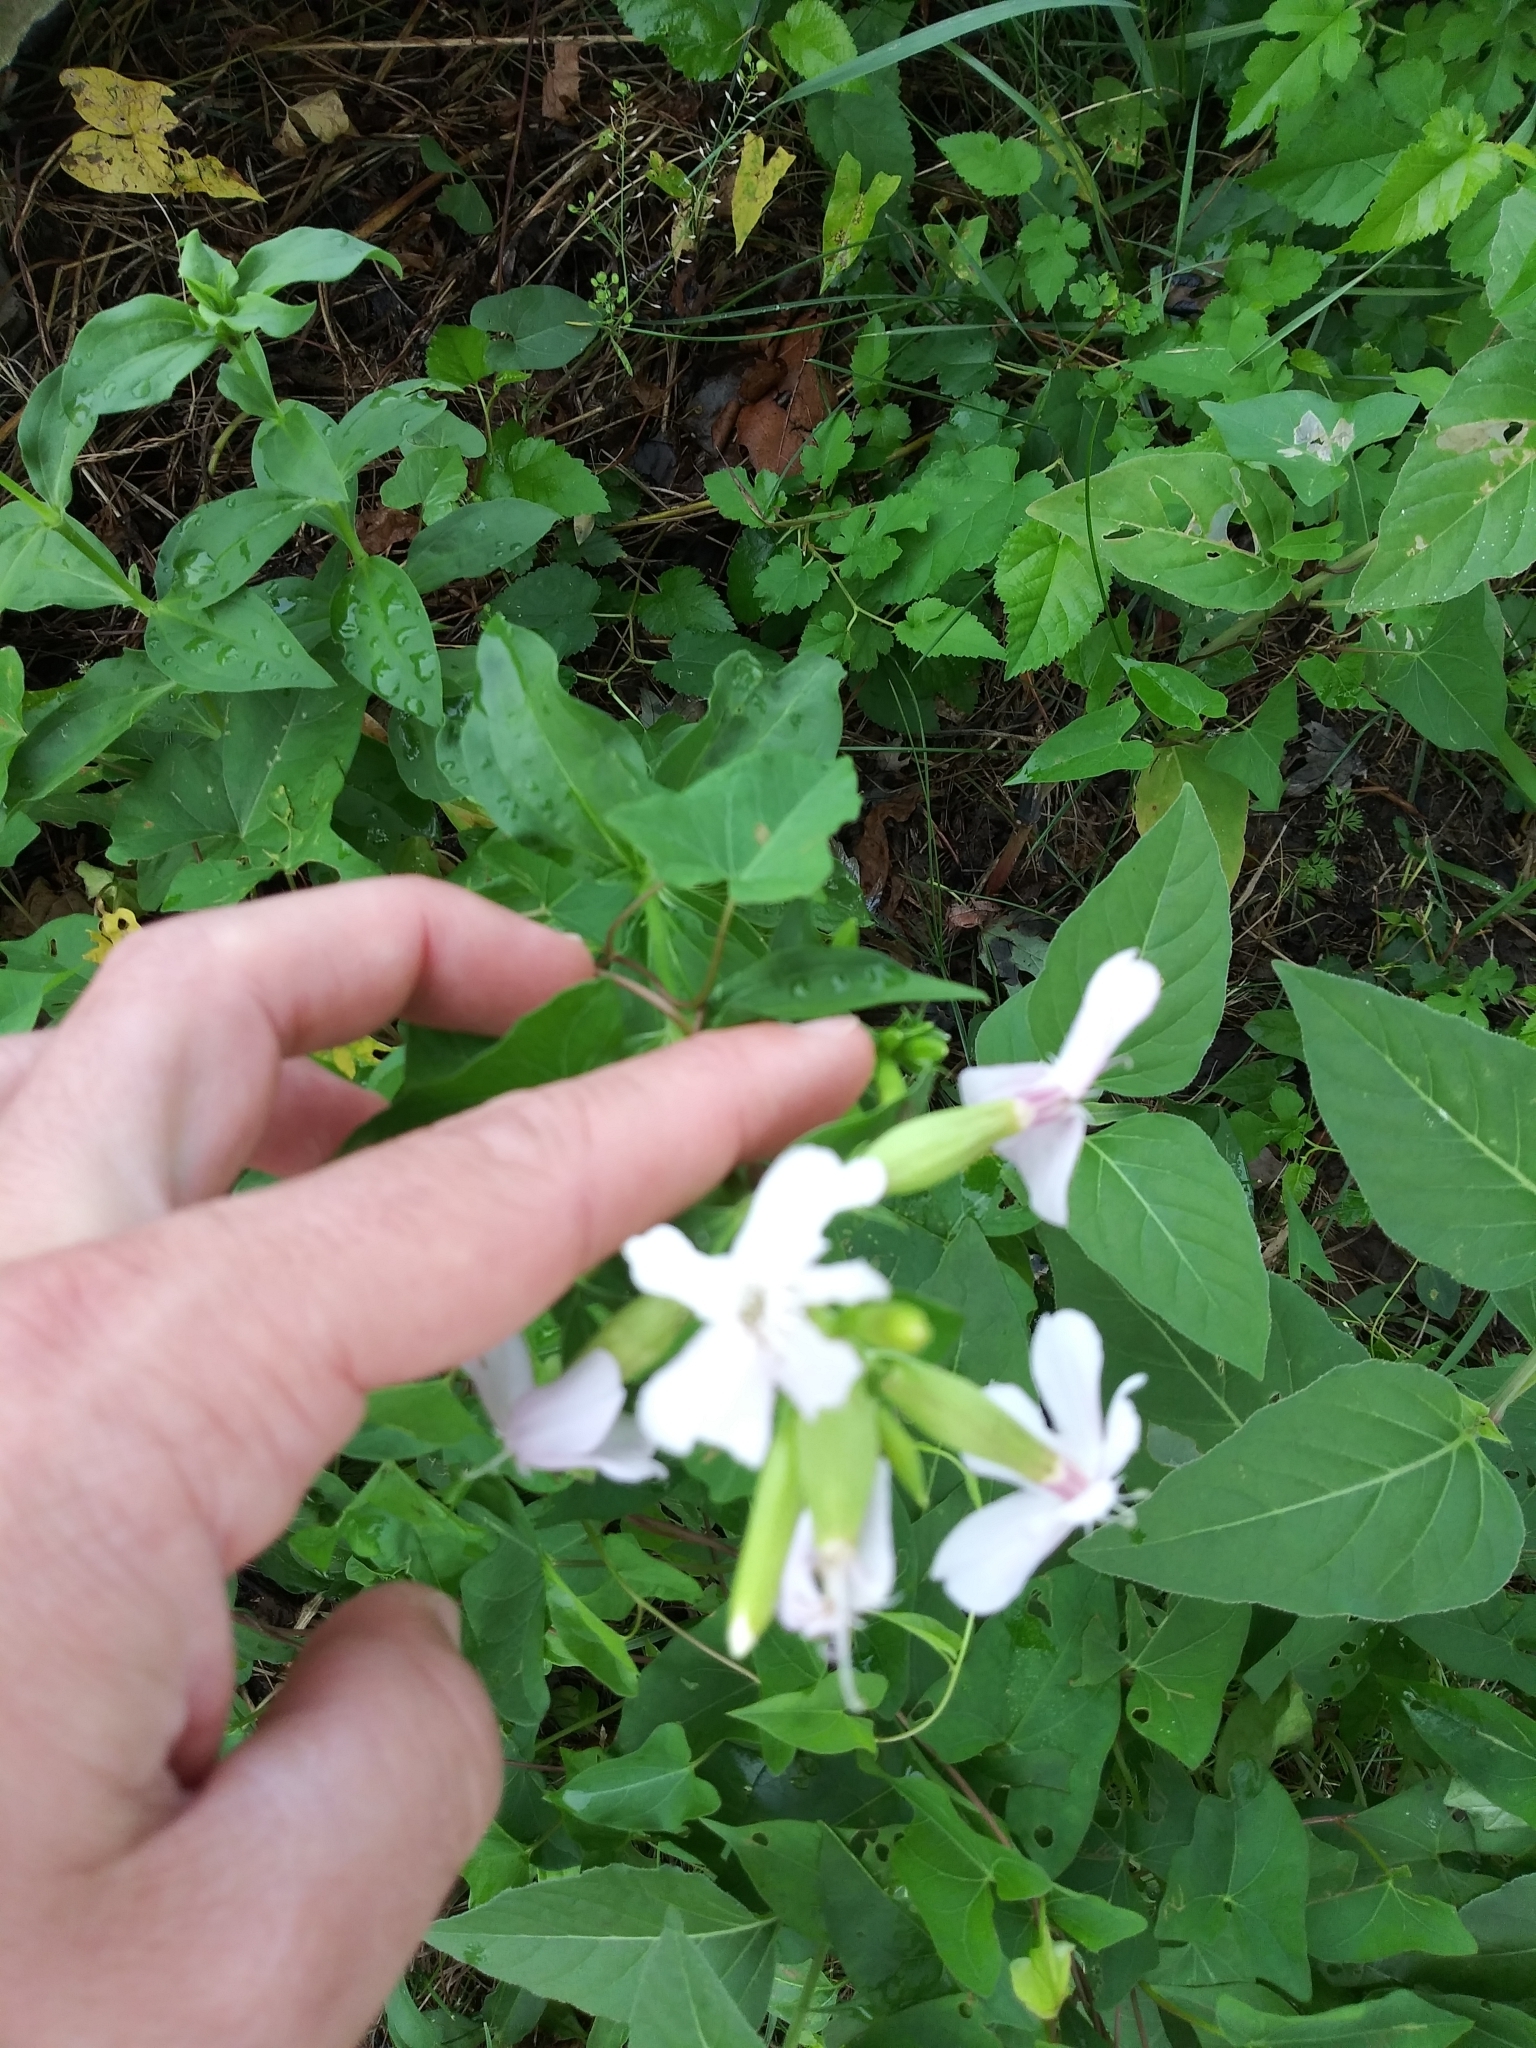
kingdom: Plantae
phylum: Tracheophyta
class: Magnoliopsida
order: Caryophyllales
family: Caryophyllaceae
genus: Saponaria
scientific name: Saponaria officinalis
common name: Soapwort
